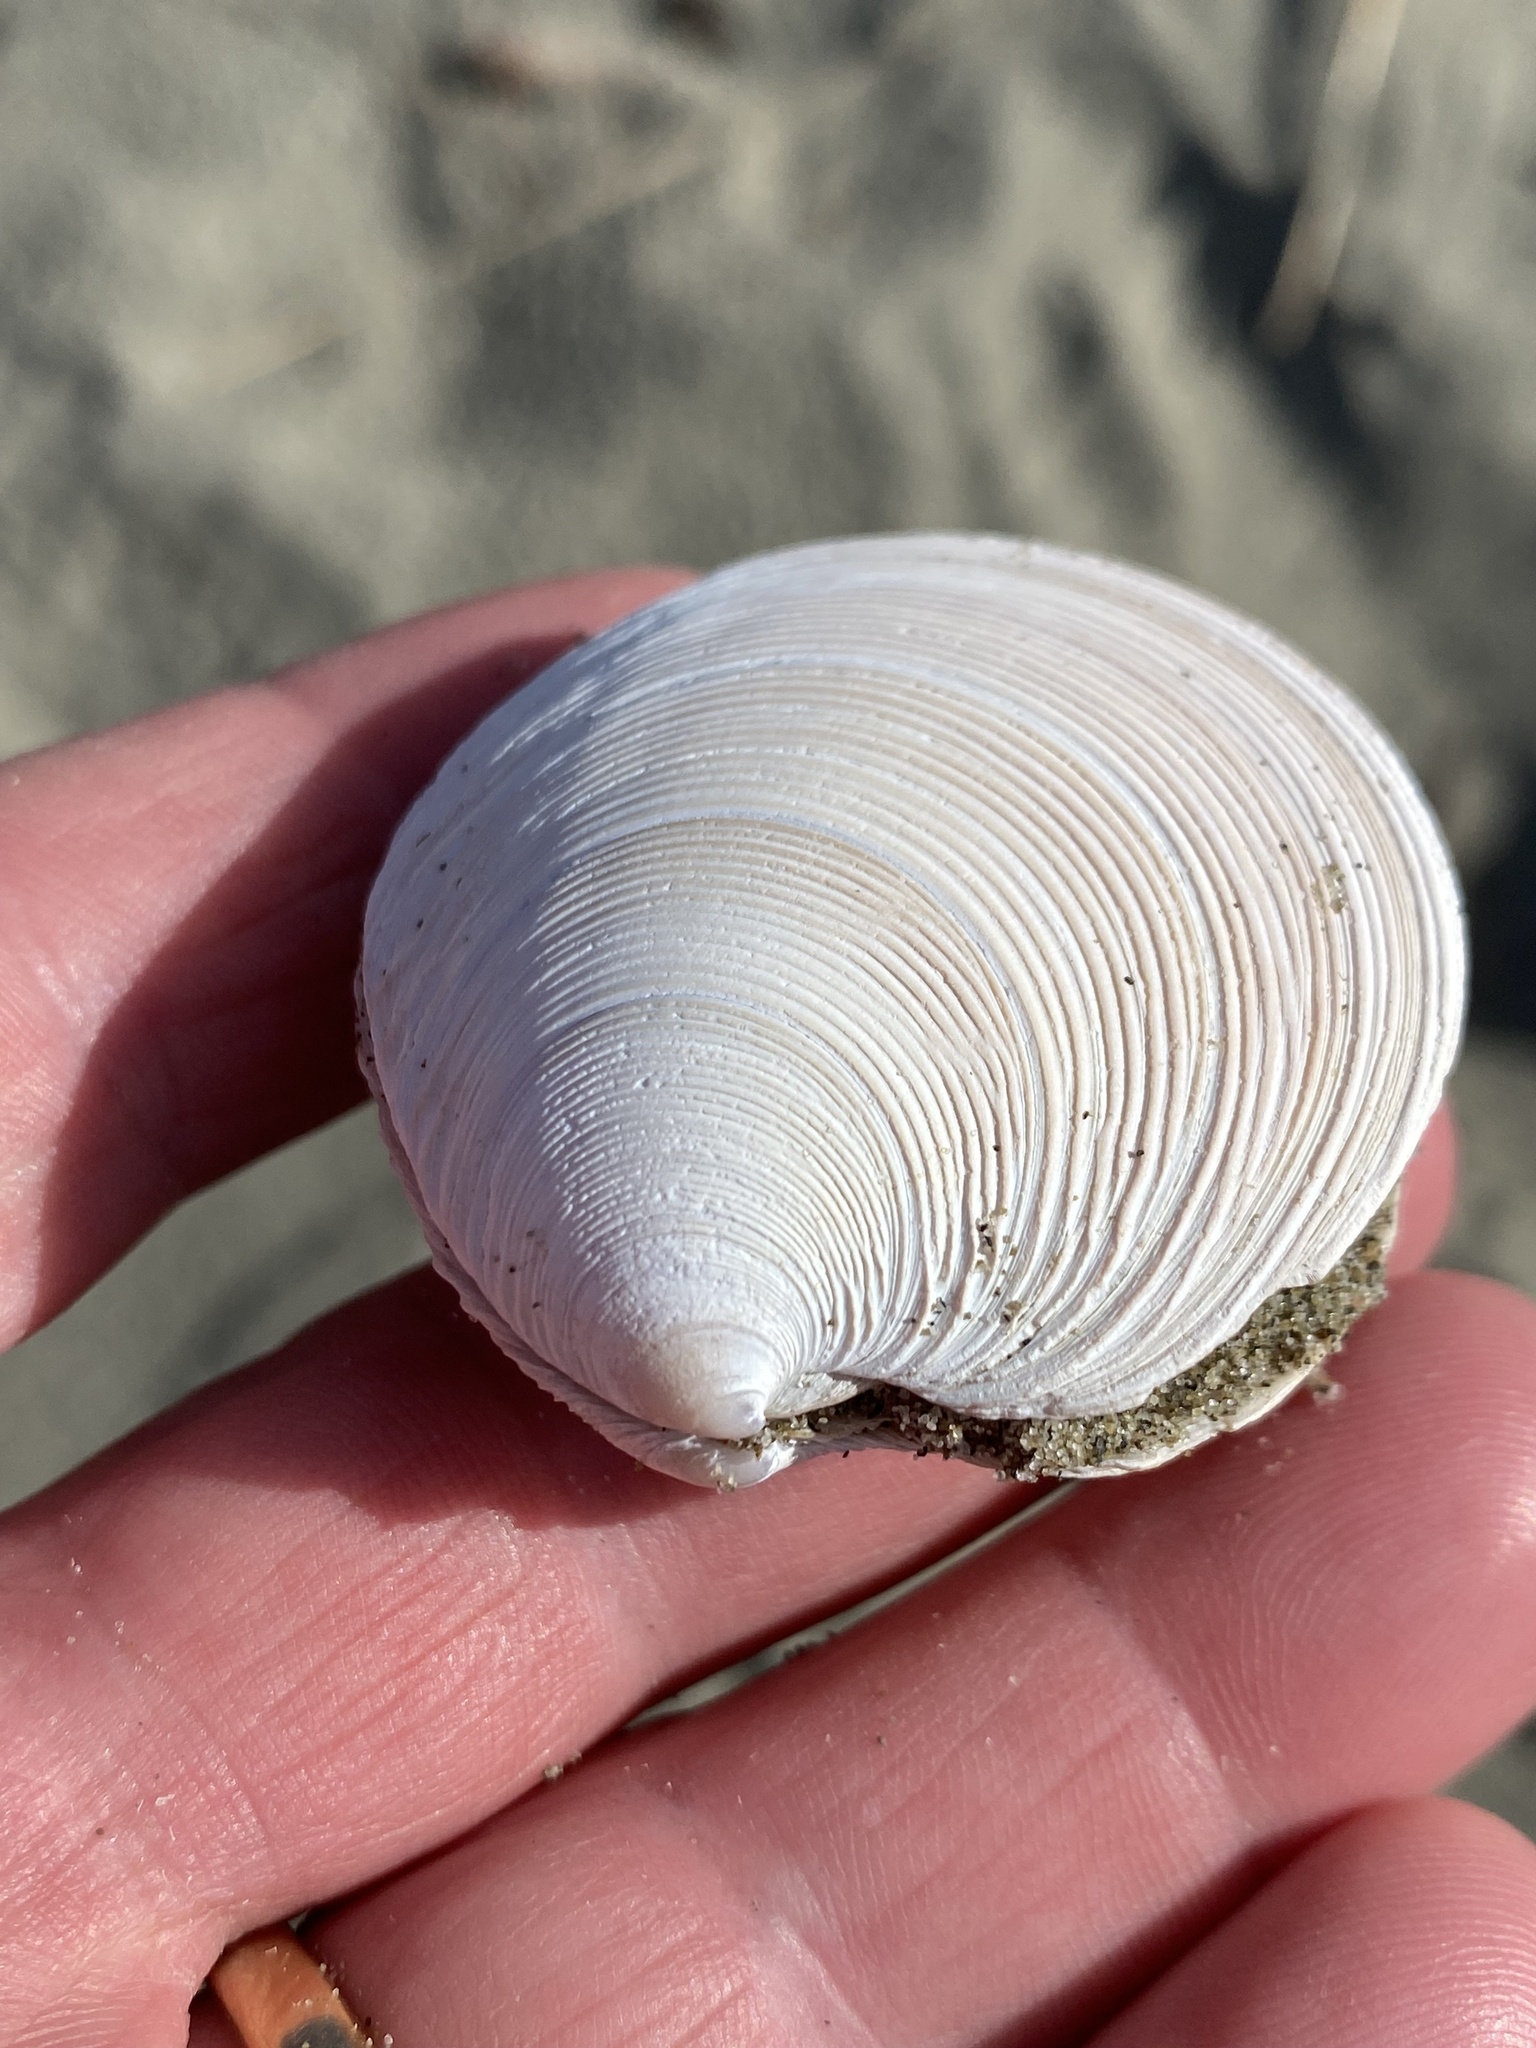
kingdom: Animalia
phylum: Mollusca
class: Bivalvia
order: Venerida
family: Veneridae
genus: Dosinia
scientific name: Dosinia anus
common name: Old-woman dosinia
